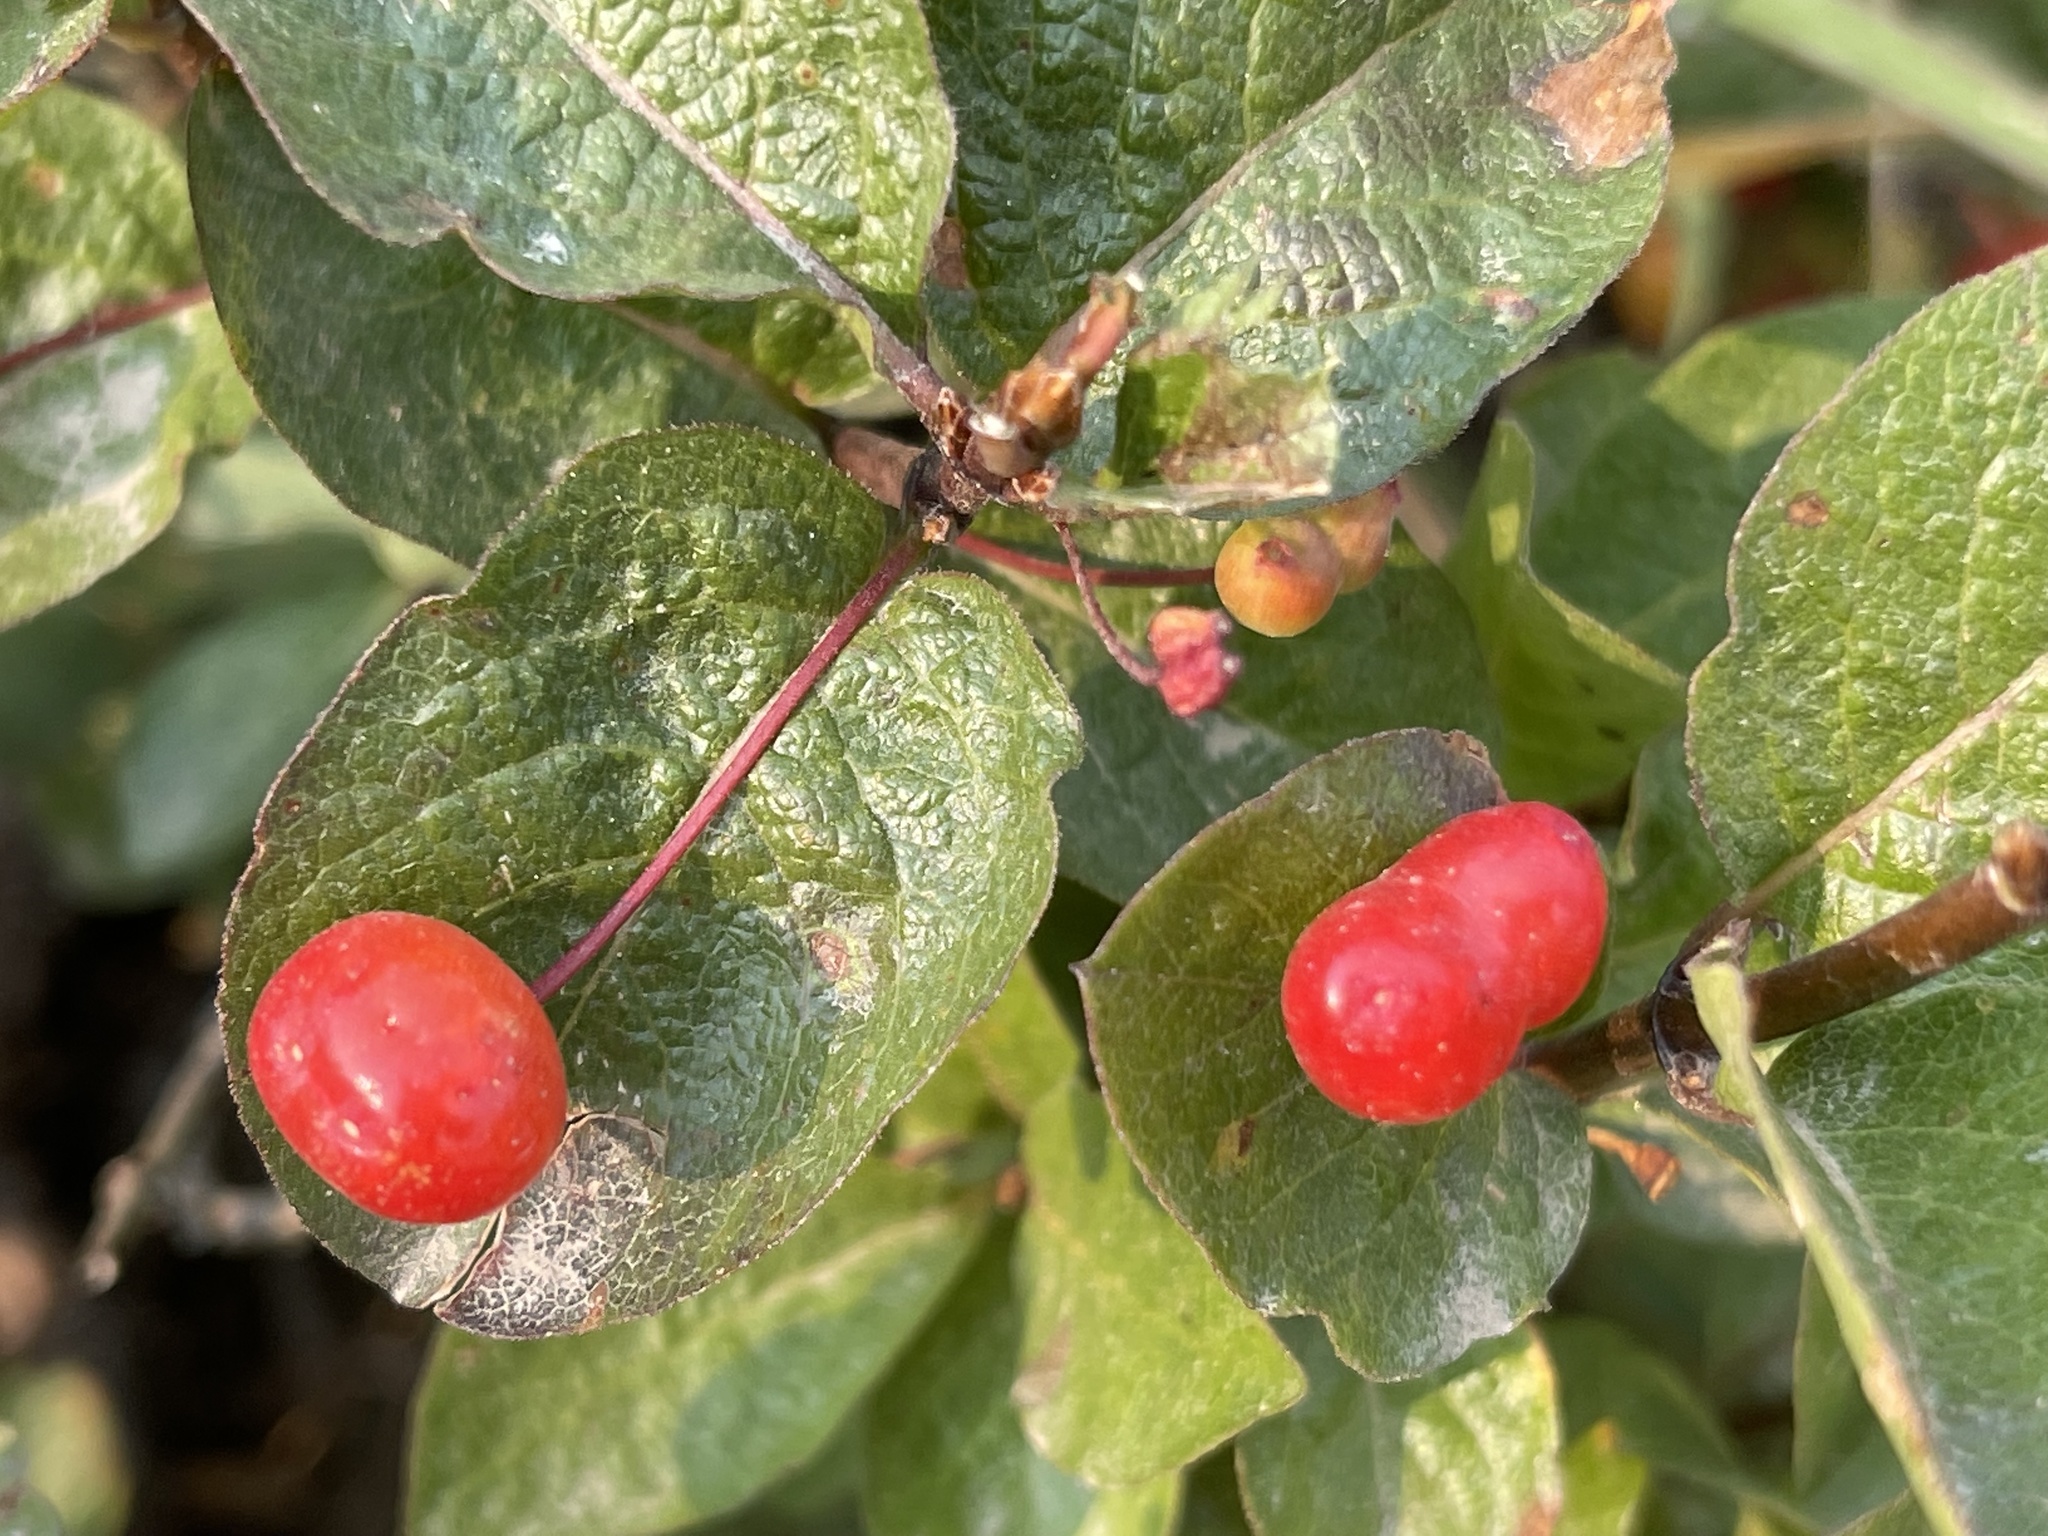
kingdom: Plantae
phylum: Tracheophyta
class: Magnoliopsida
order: Dipsacales
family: Caprifoliaceae
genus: Lonicera
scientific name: Lonicera conjugialis
